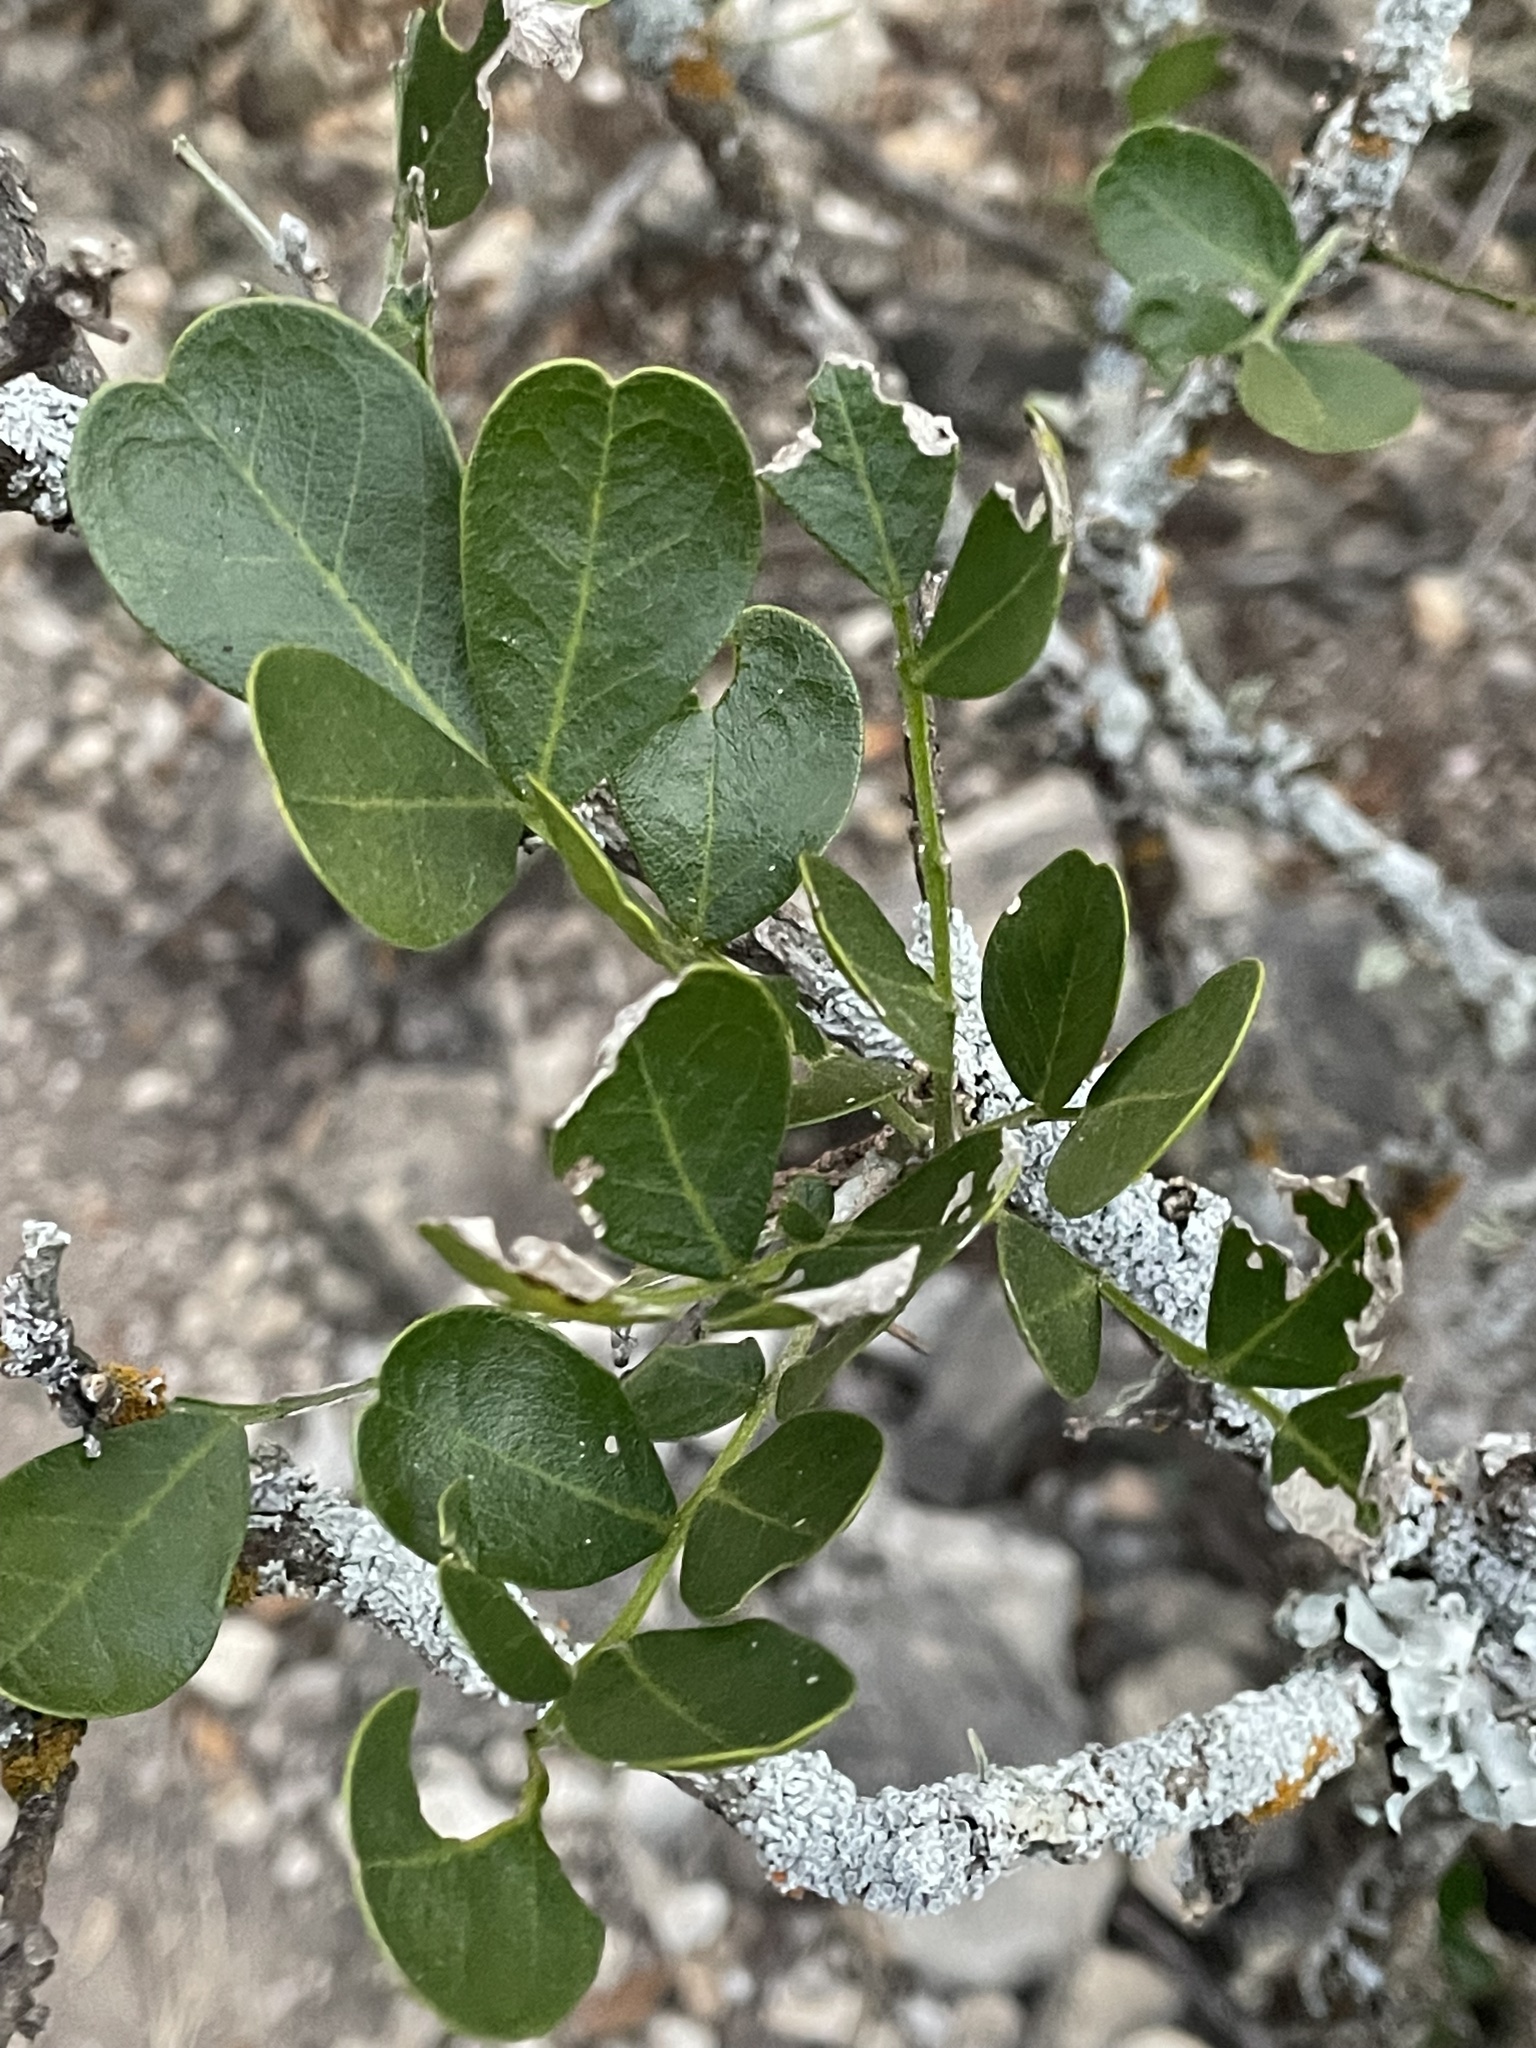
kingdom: Plantae
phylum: Tracheophyta
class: Magnoliopsida
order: Fabales
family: Fabaceae
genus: Dermatophyllum
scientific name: Dermatophyllum secundiflorum
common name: Texas-mountain-laurel
